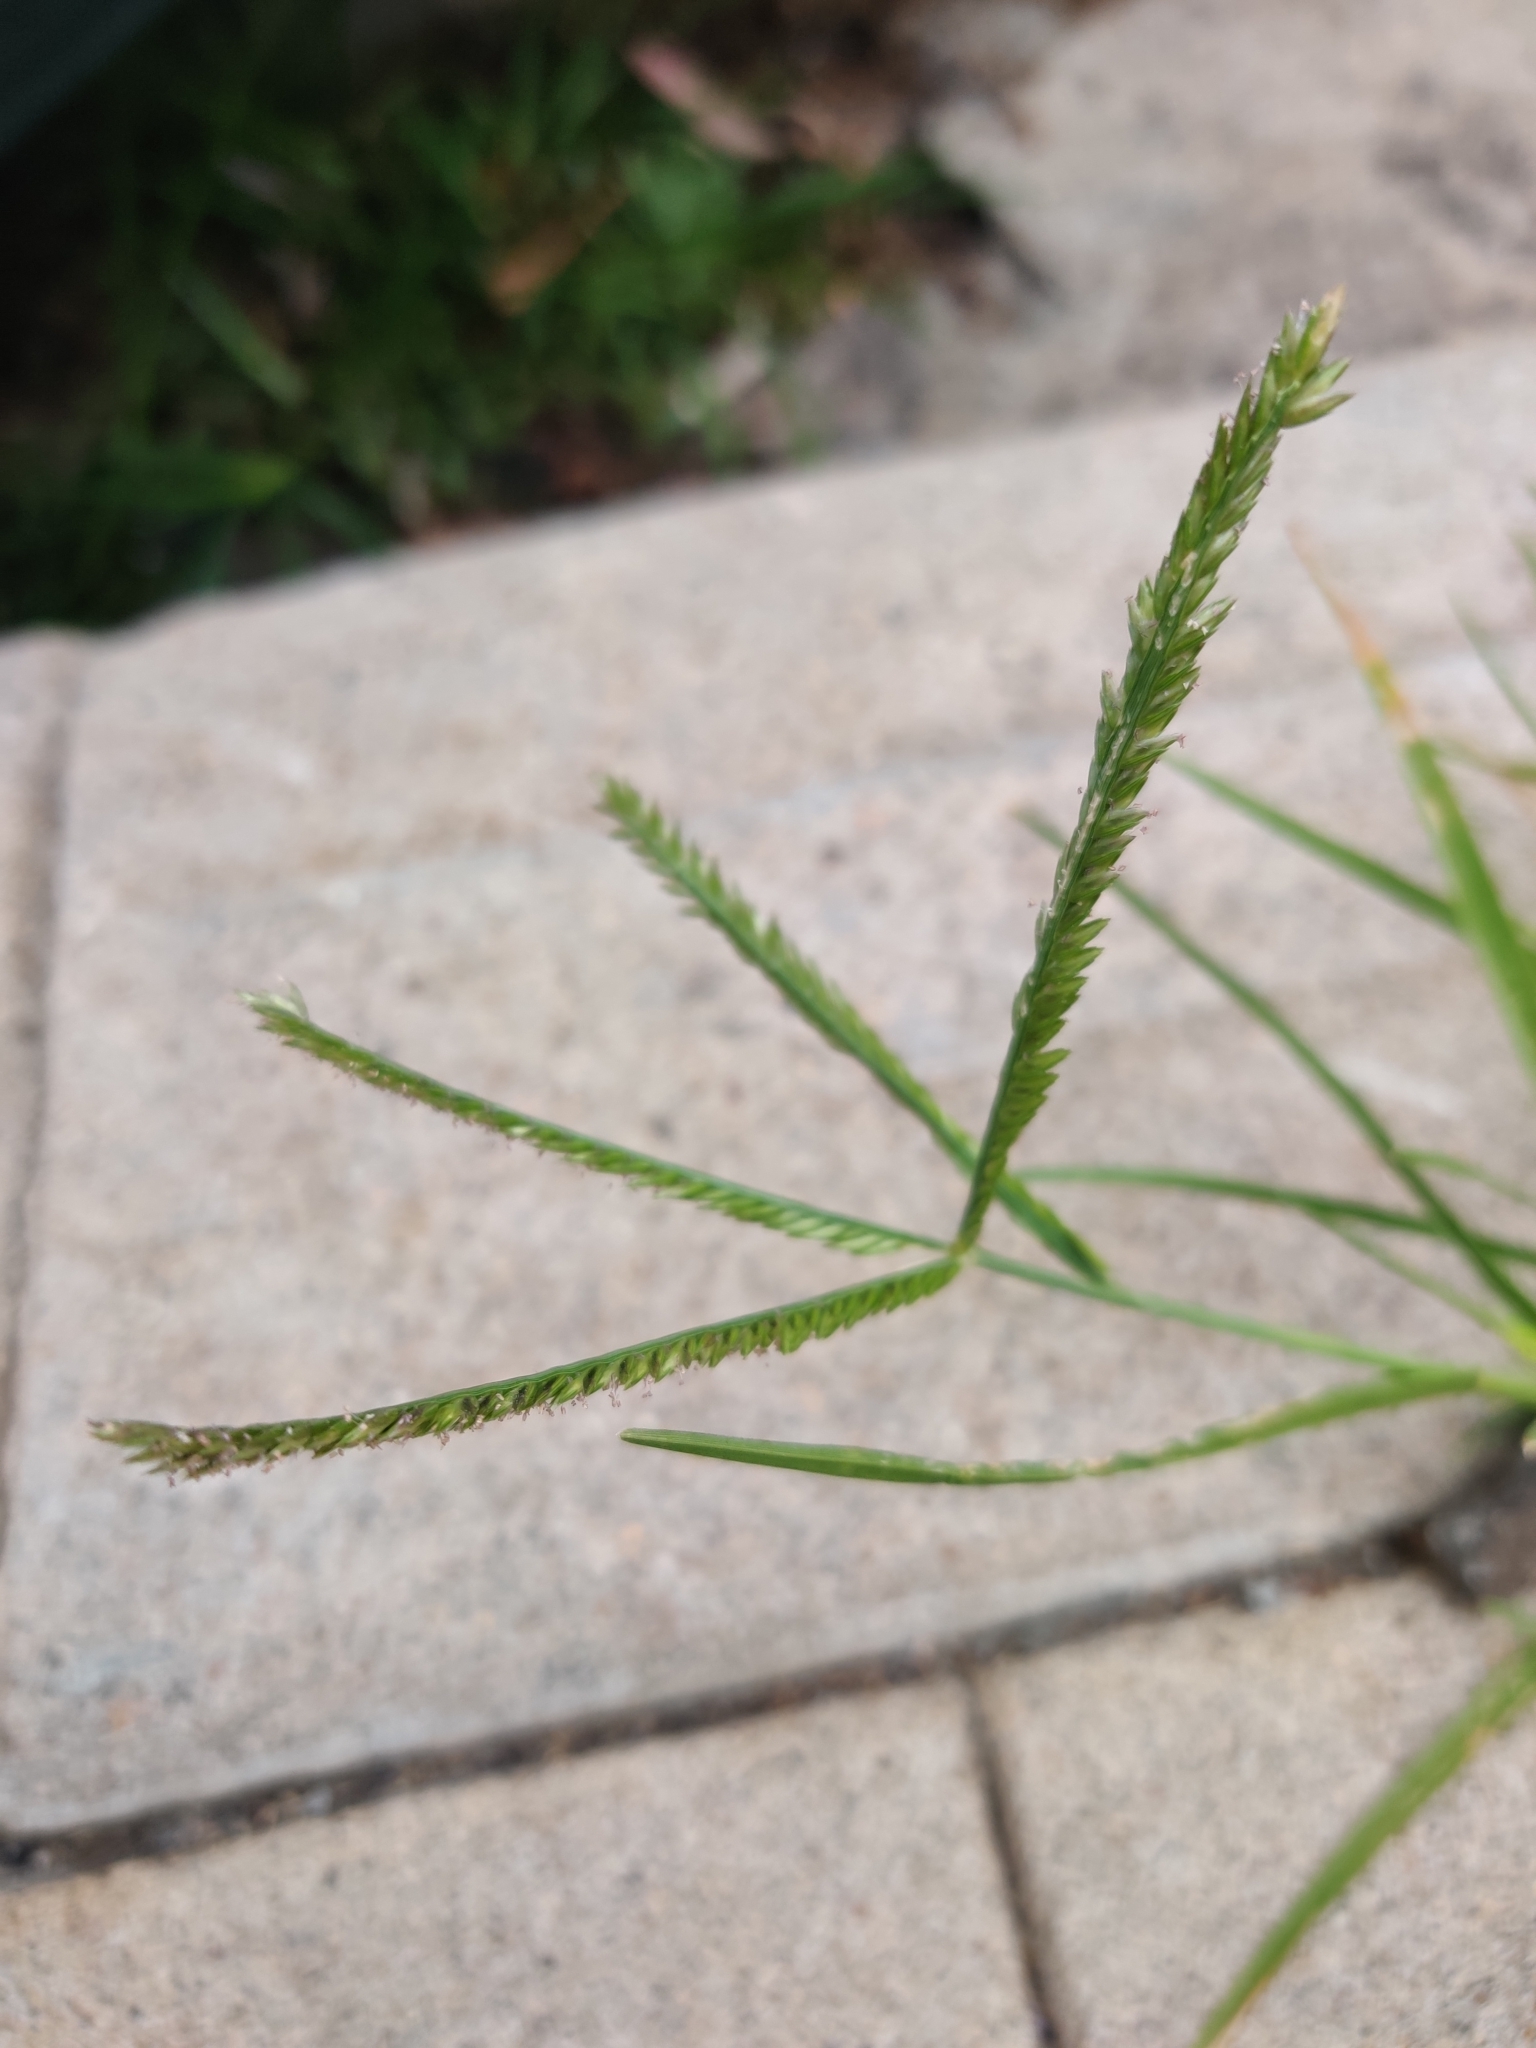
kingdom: Plantae
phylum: Tracheophyta
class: Liliopsida
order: Poales
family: Poaceae
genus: Eleusine
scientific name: Eleusine indica
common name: Yard-grass
